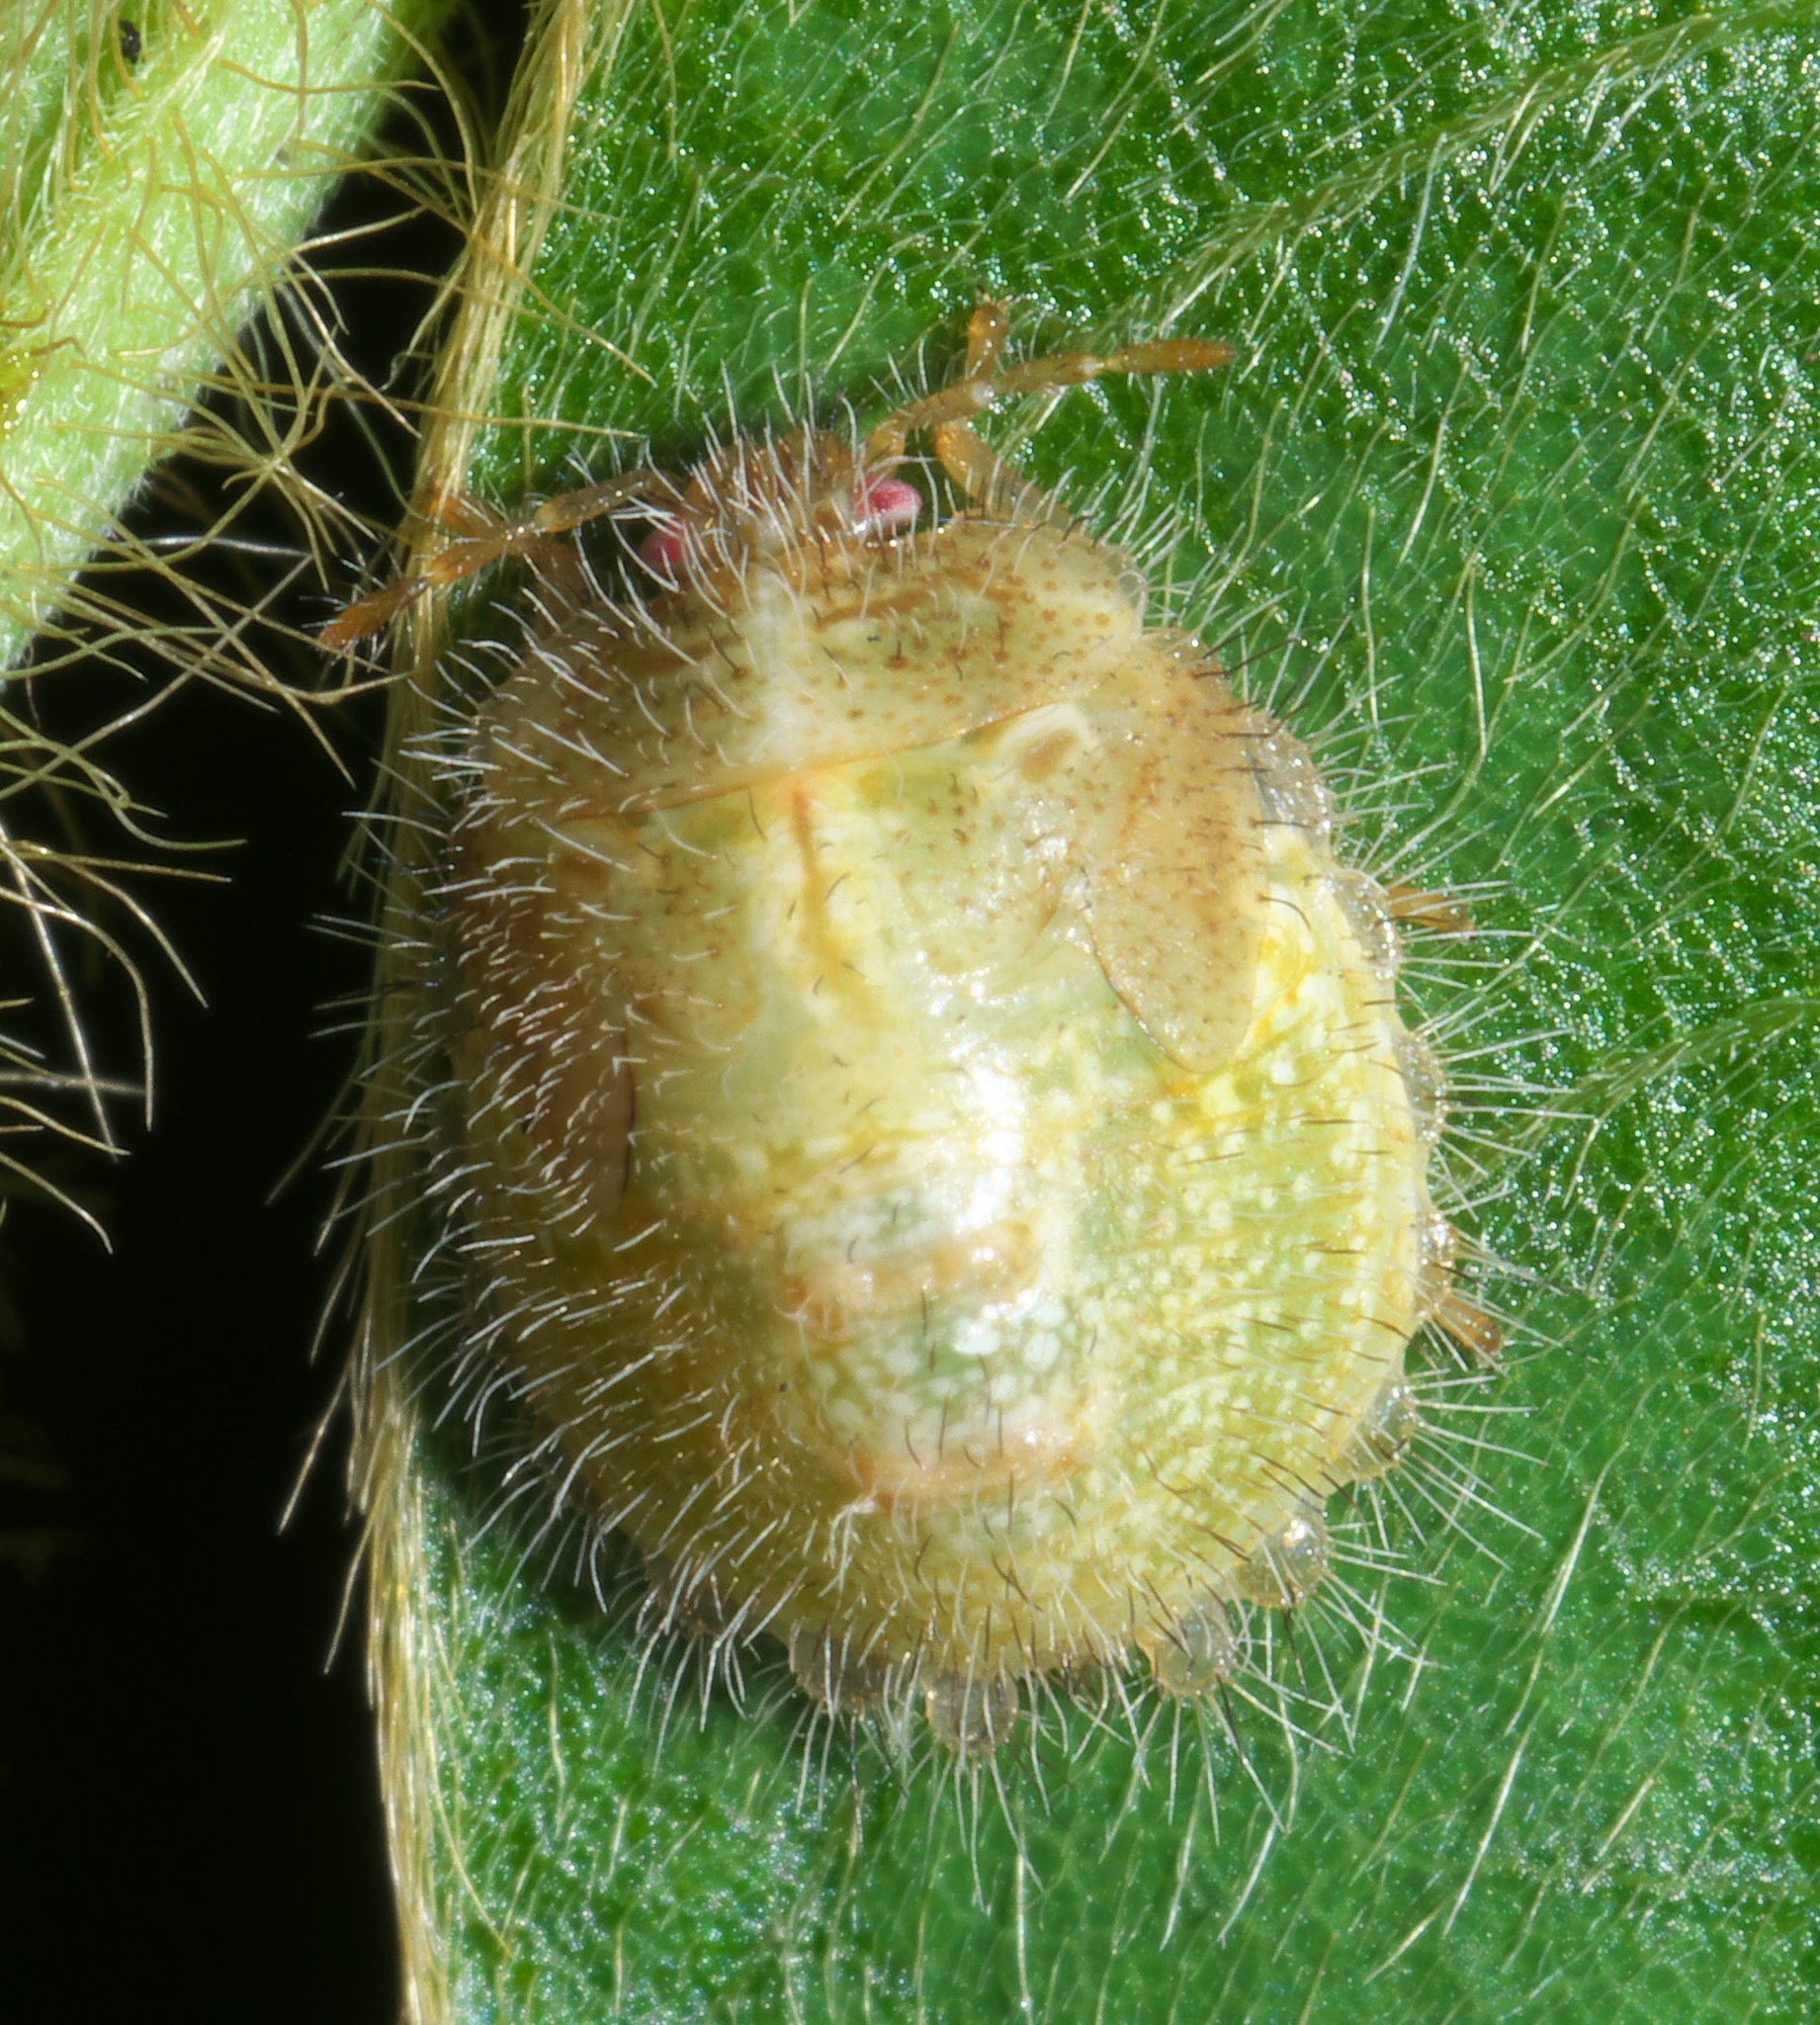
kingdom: Animalia
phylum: Arthropoda
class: Insecta
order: Hemiptera
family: Plataspidae
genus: Megacopta
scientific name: Megacopta cribraria
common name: Bean plataspid
